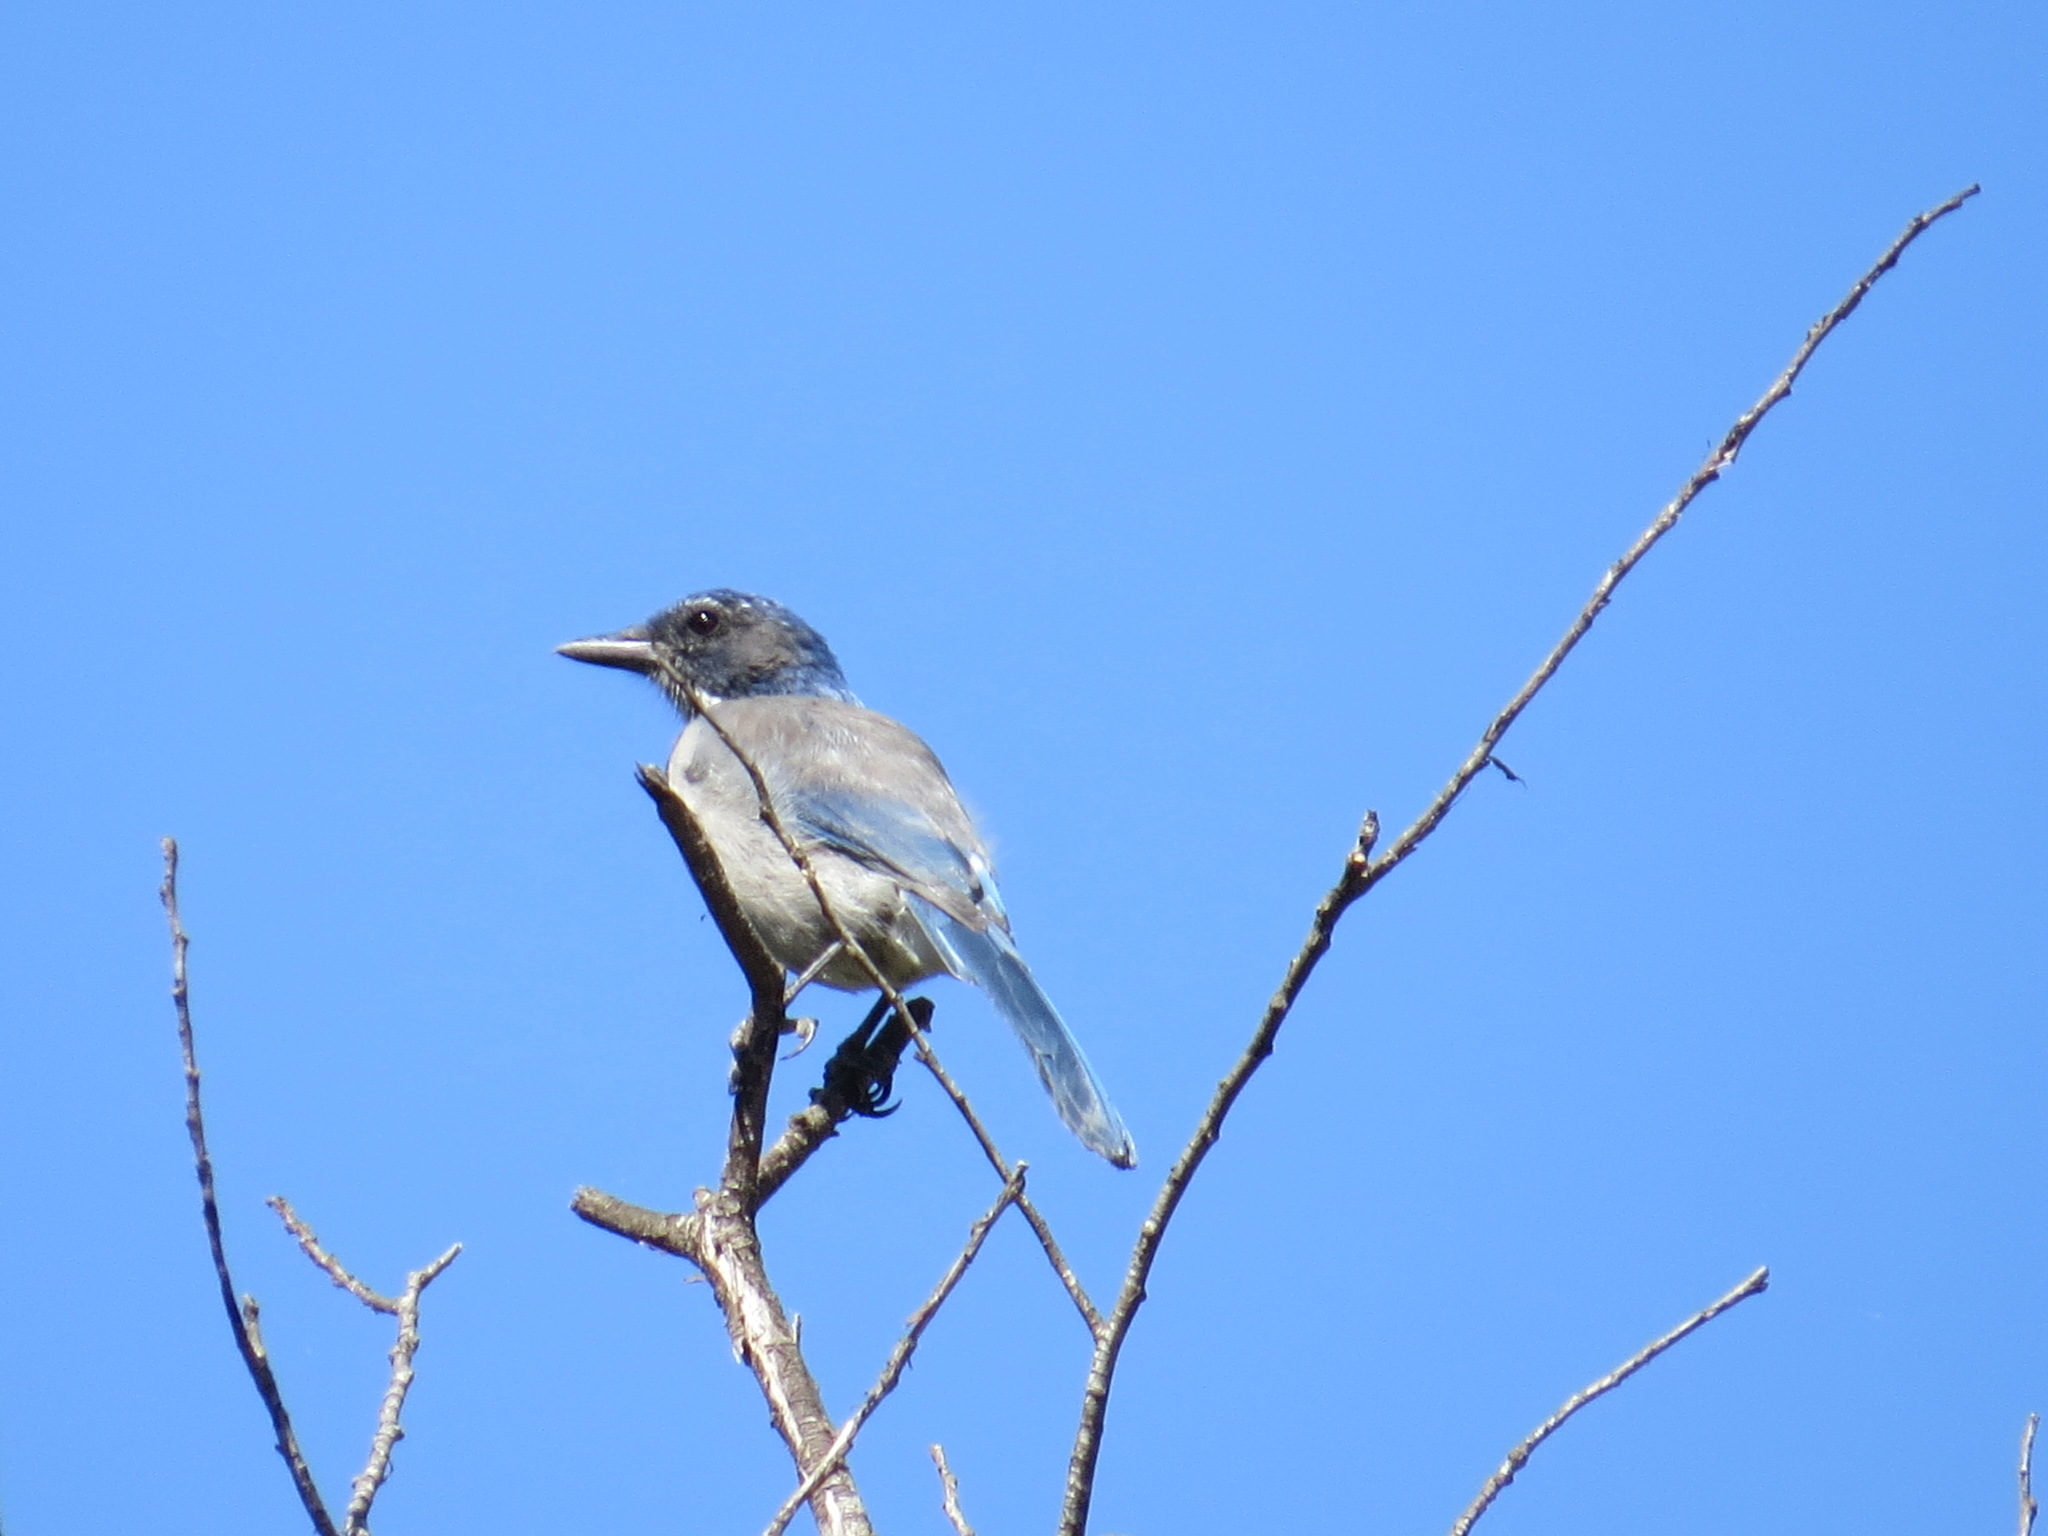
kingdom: Animalia
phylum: Chordata
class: Aves
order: Passeriformes
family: Corvidae
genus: Aphelocoma
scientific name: Aphelocoma californica
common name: California scrub-jay
